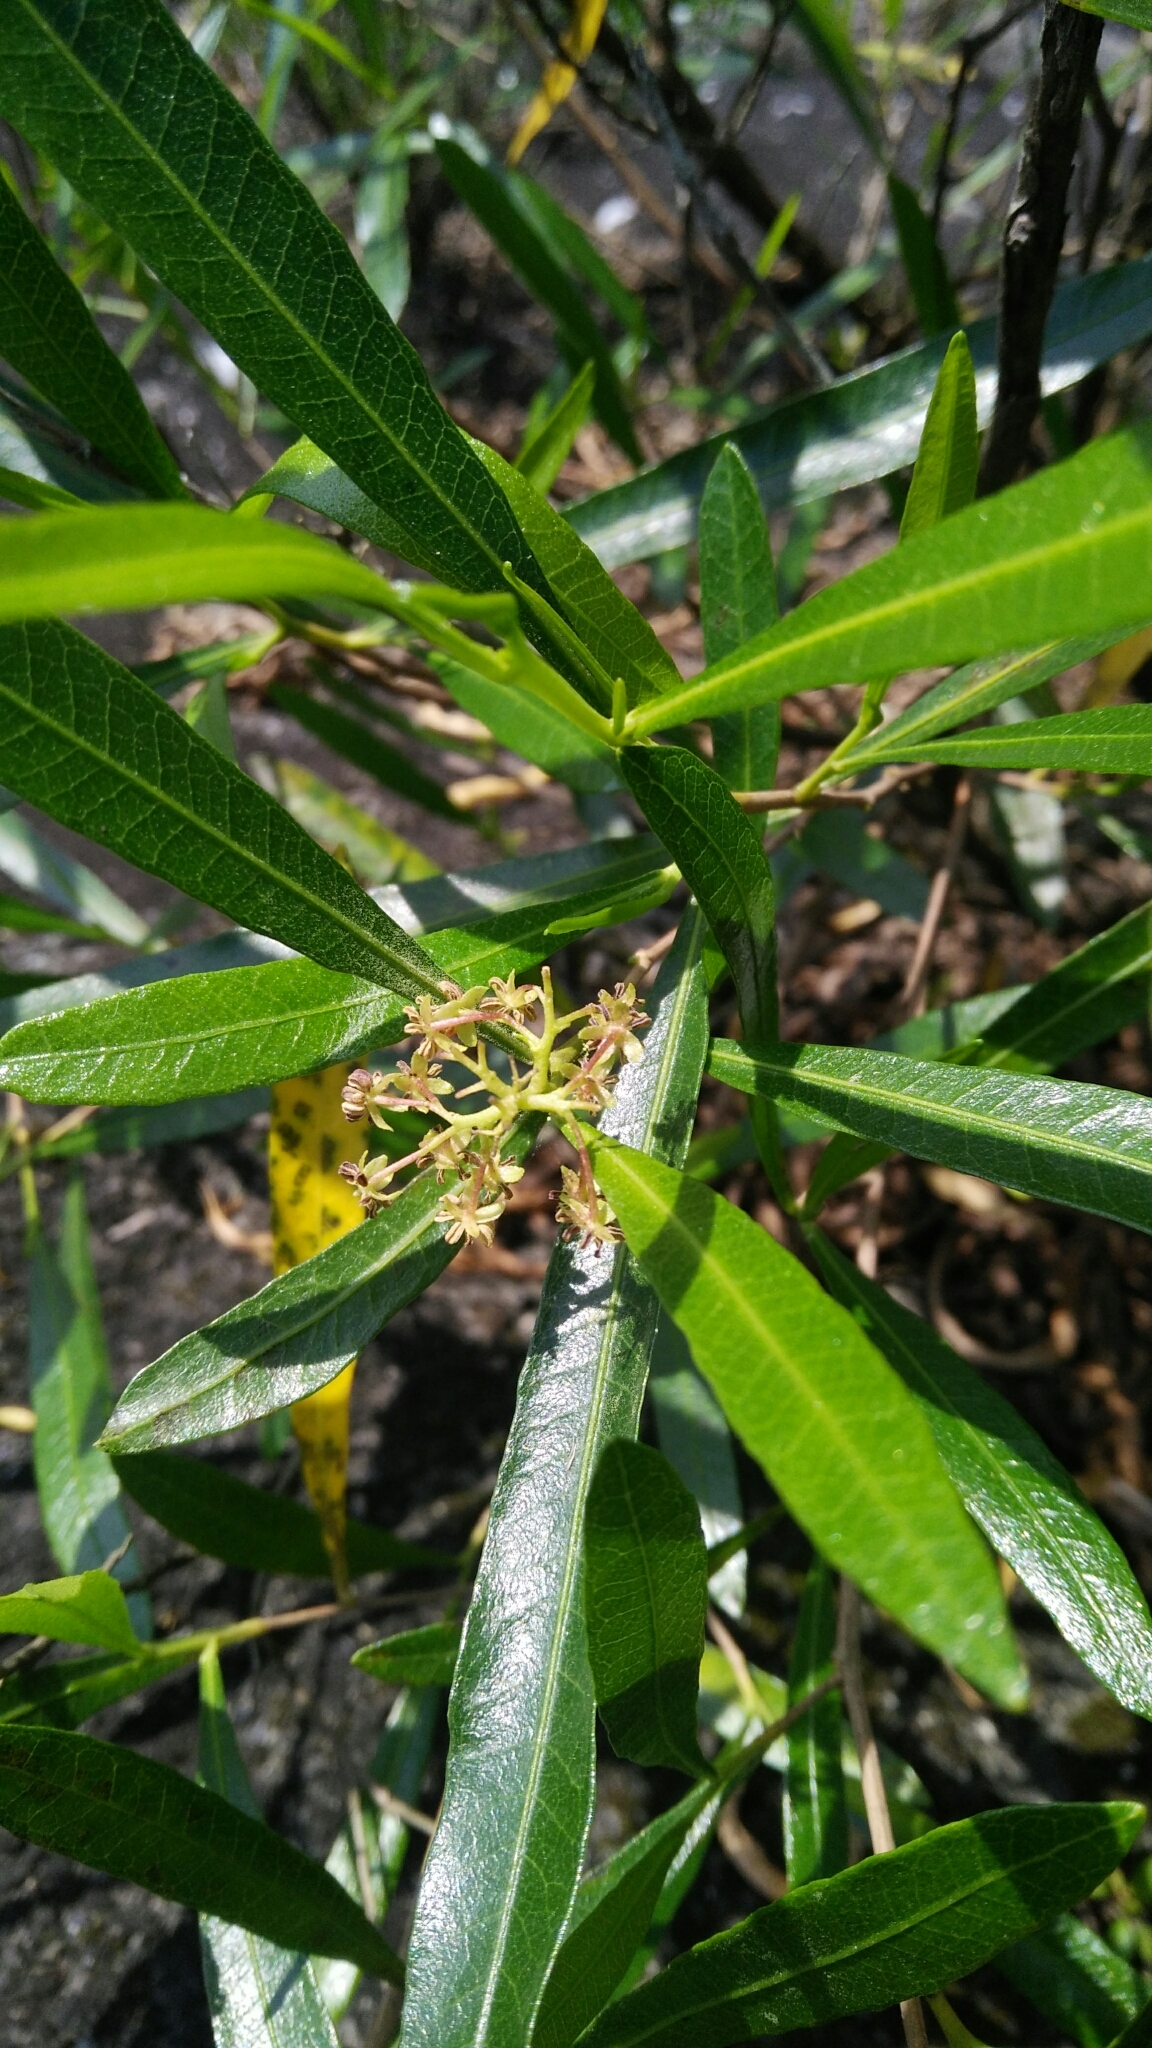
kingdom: Plantae
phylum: Tracheophyta
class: Magnoliopsida
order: Sapindales
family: Sapindaceae
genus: Dodonaea
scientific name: Dodonaea viscosa
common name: Hopbush
